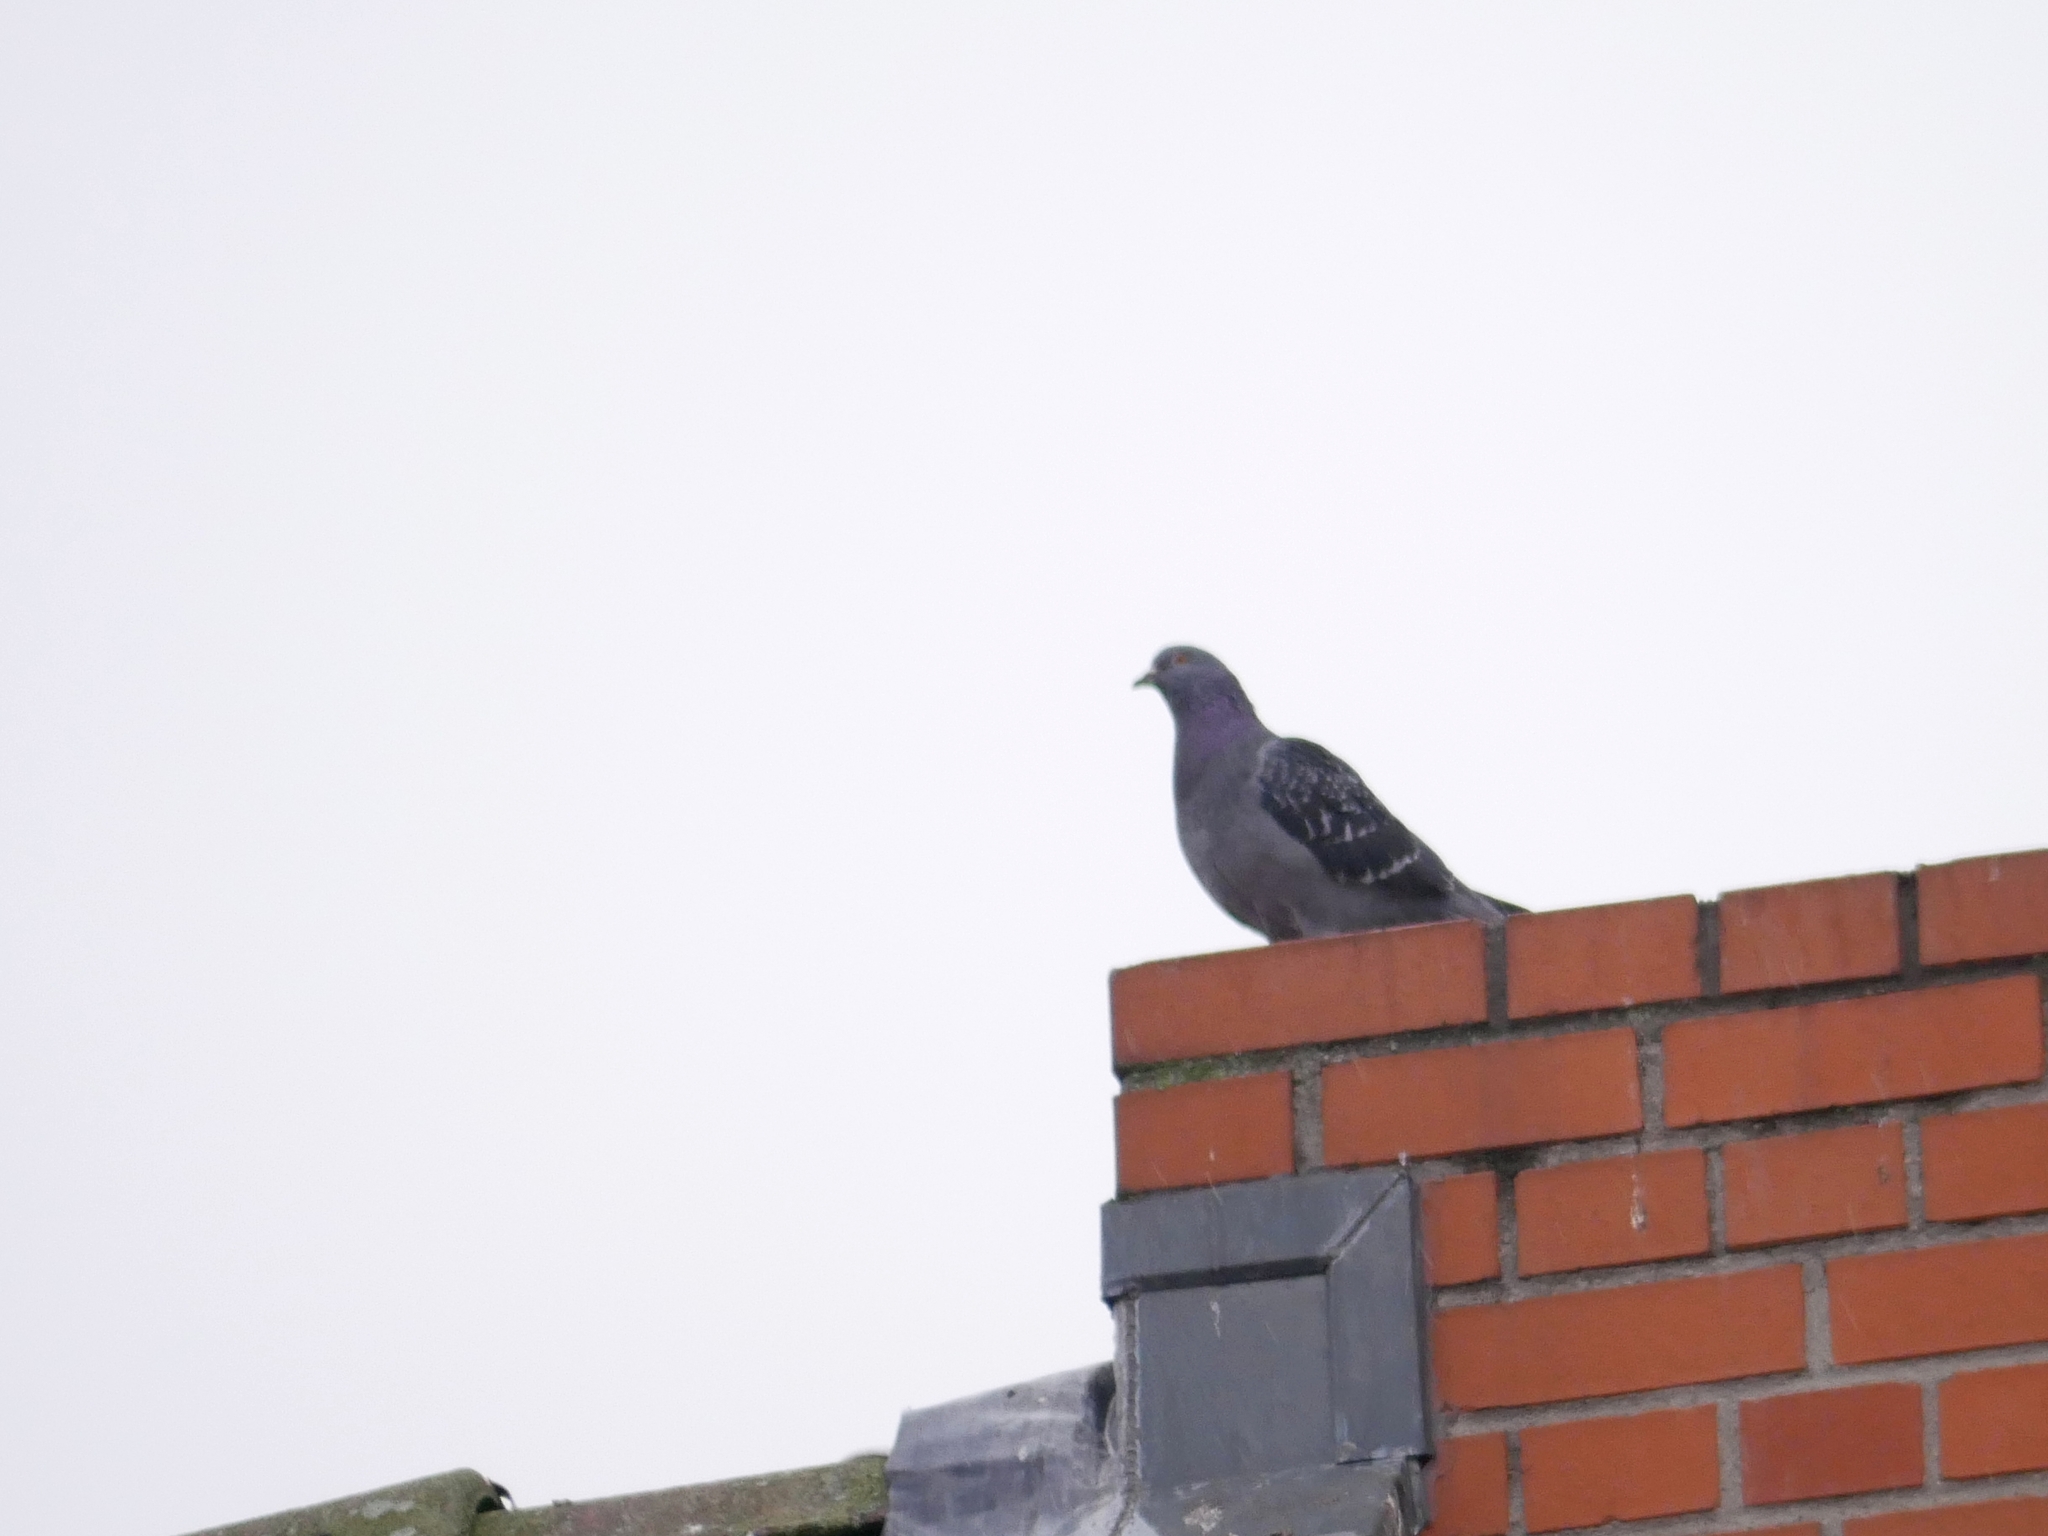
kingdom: Animalia
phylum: Chordata
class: Aves
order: Columbiformes
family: Columbidae
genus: Columba
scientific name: Columba livia
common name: Rock pigeon
